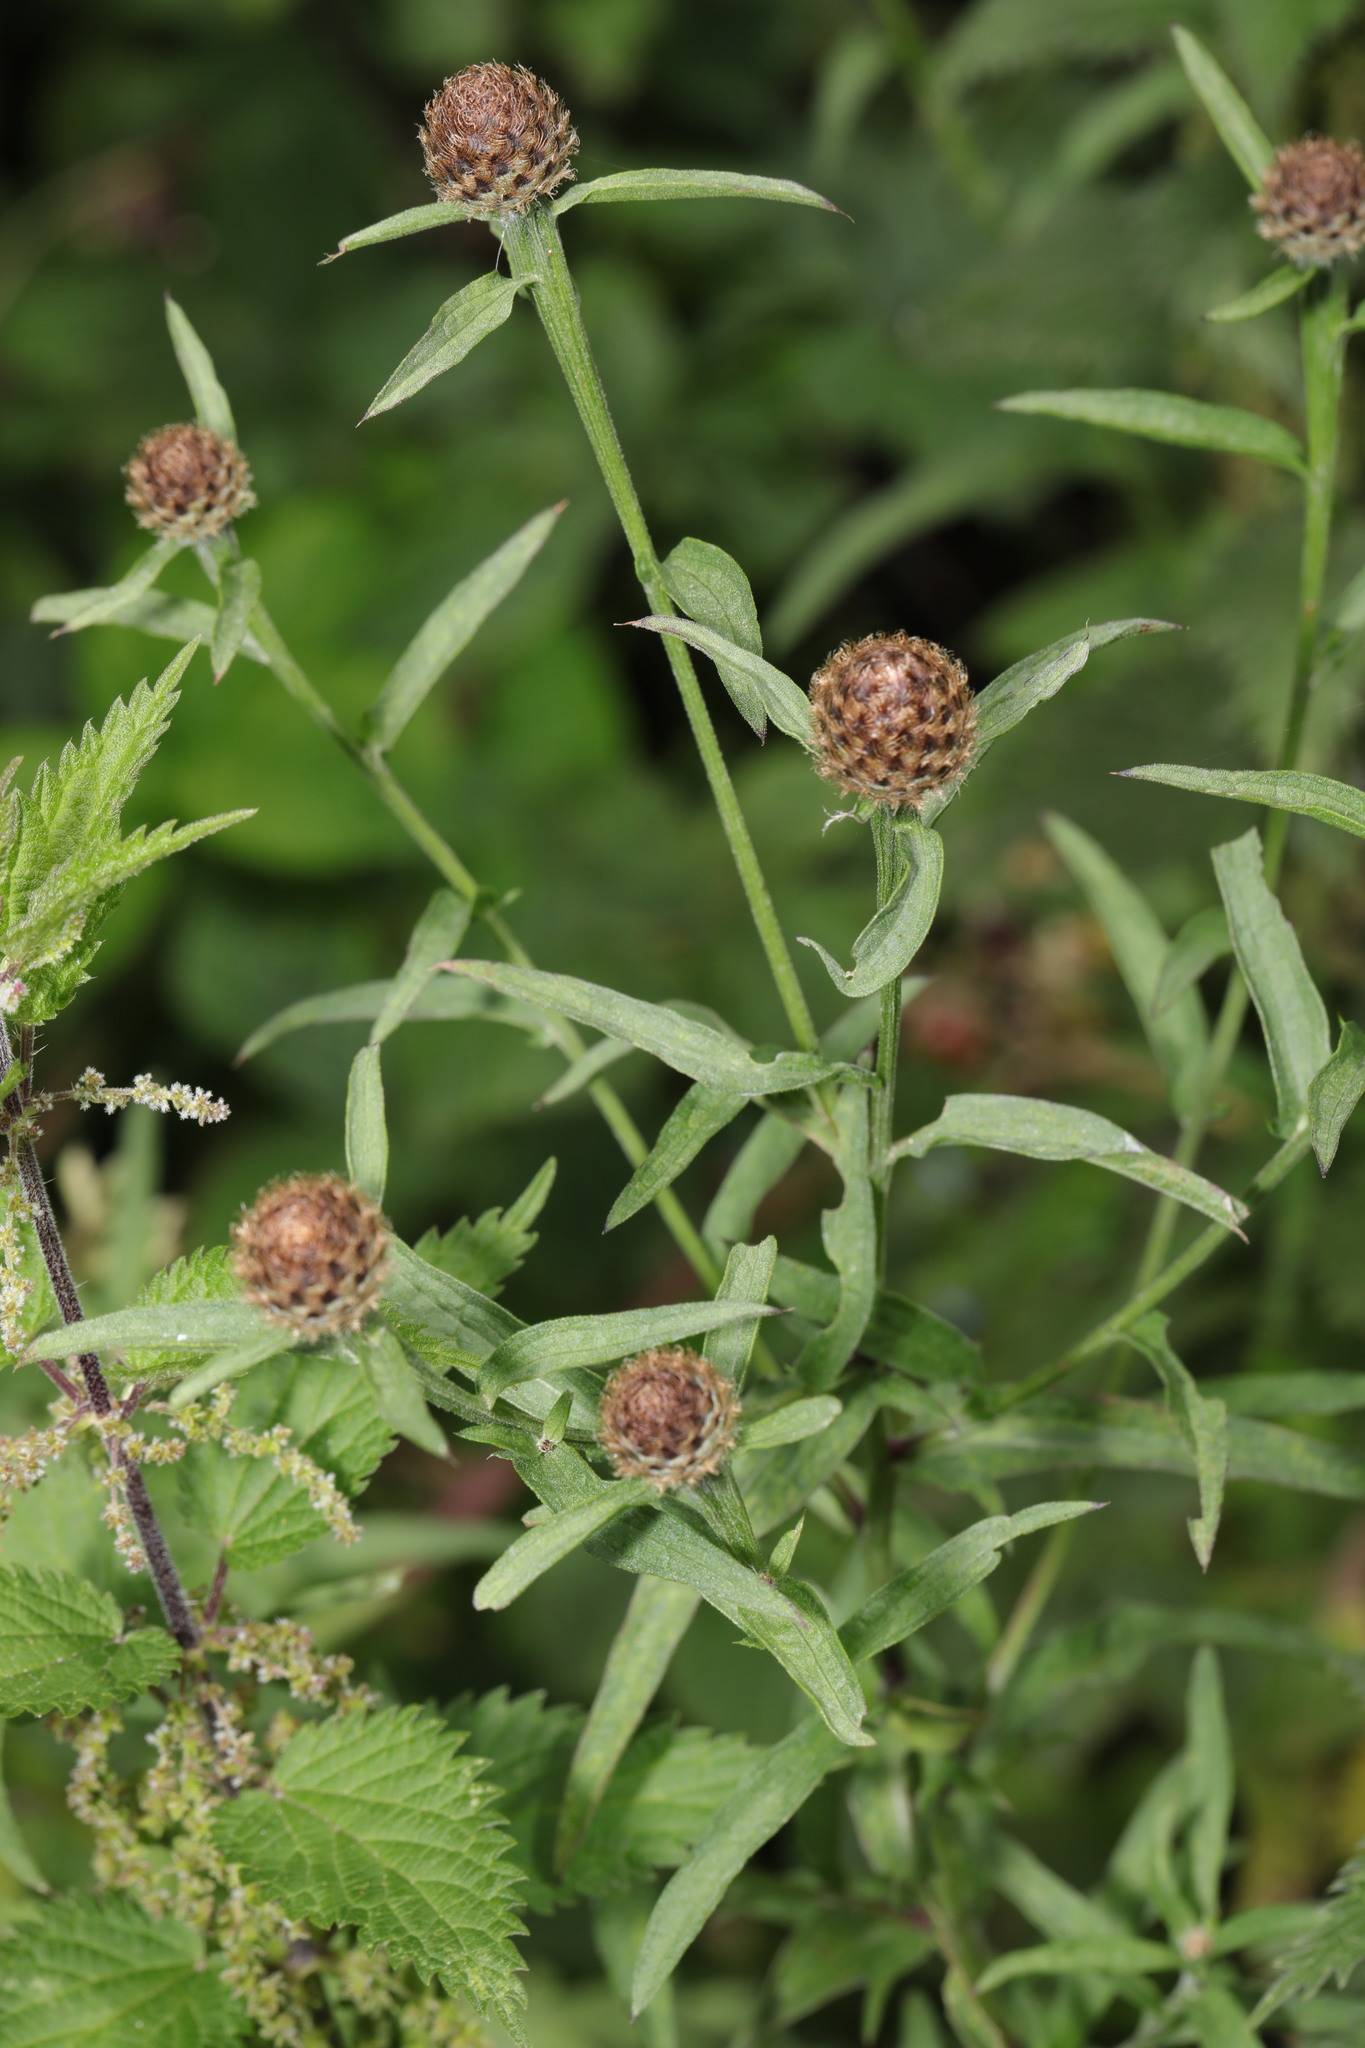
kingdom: Plantae
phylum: Tracheophyta
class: Magnoliopsida
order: Asterales
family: Asteraceae
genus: Centaurea
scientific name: Centaurea nigra
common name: Lesser knapweed
